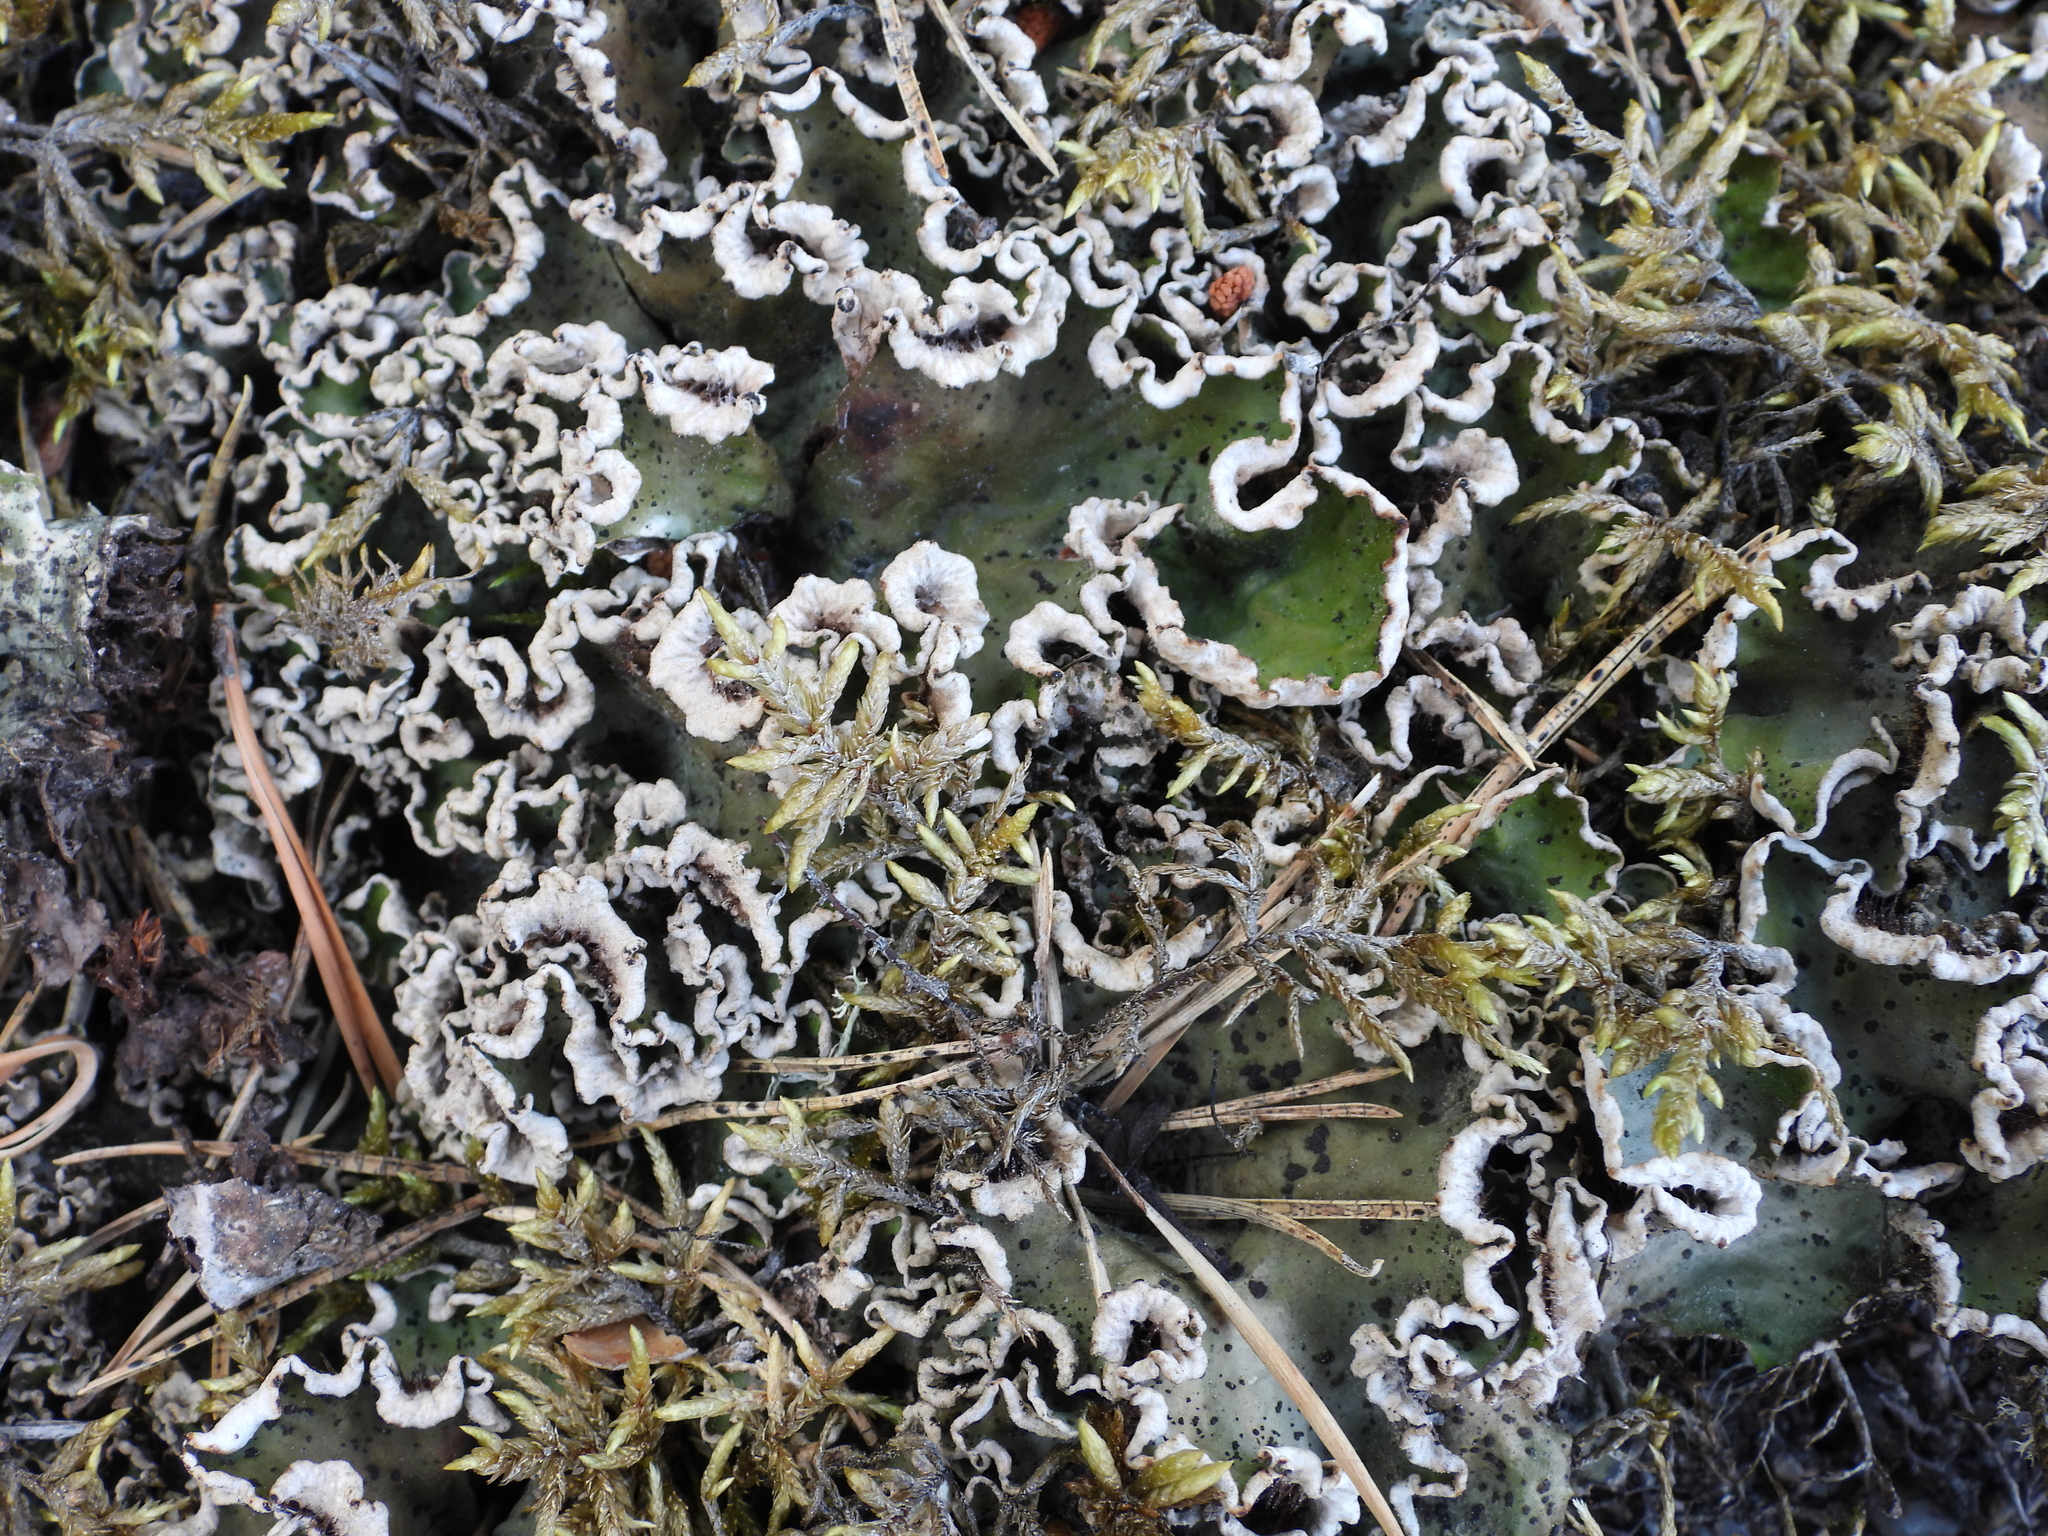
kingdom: Fungi
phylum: Ascomycota
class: Lecanoromycetes
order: Peltigerales
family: Peltigeraceae
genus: Peltigera
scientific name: Peltigera leucophlebia
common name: Ruffled freckle pelt lichen
